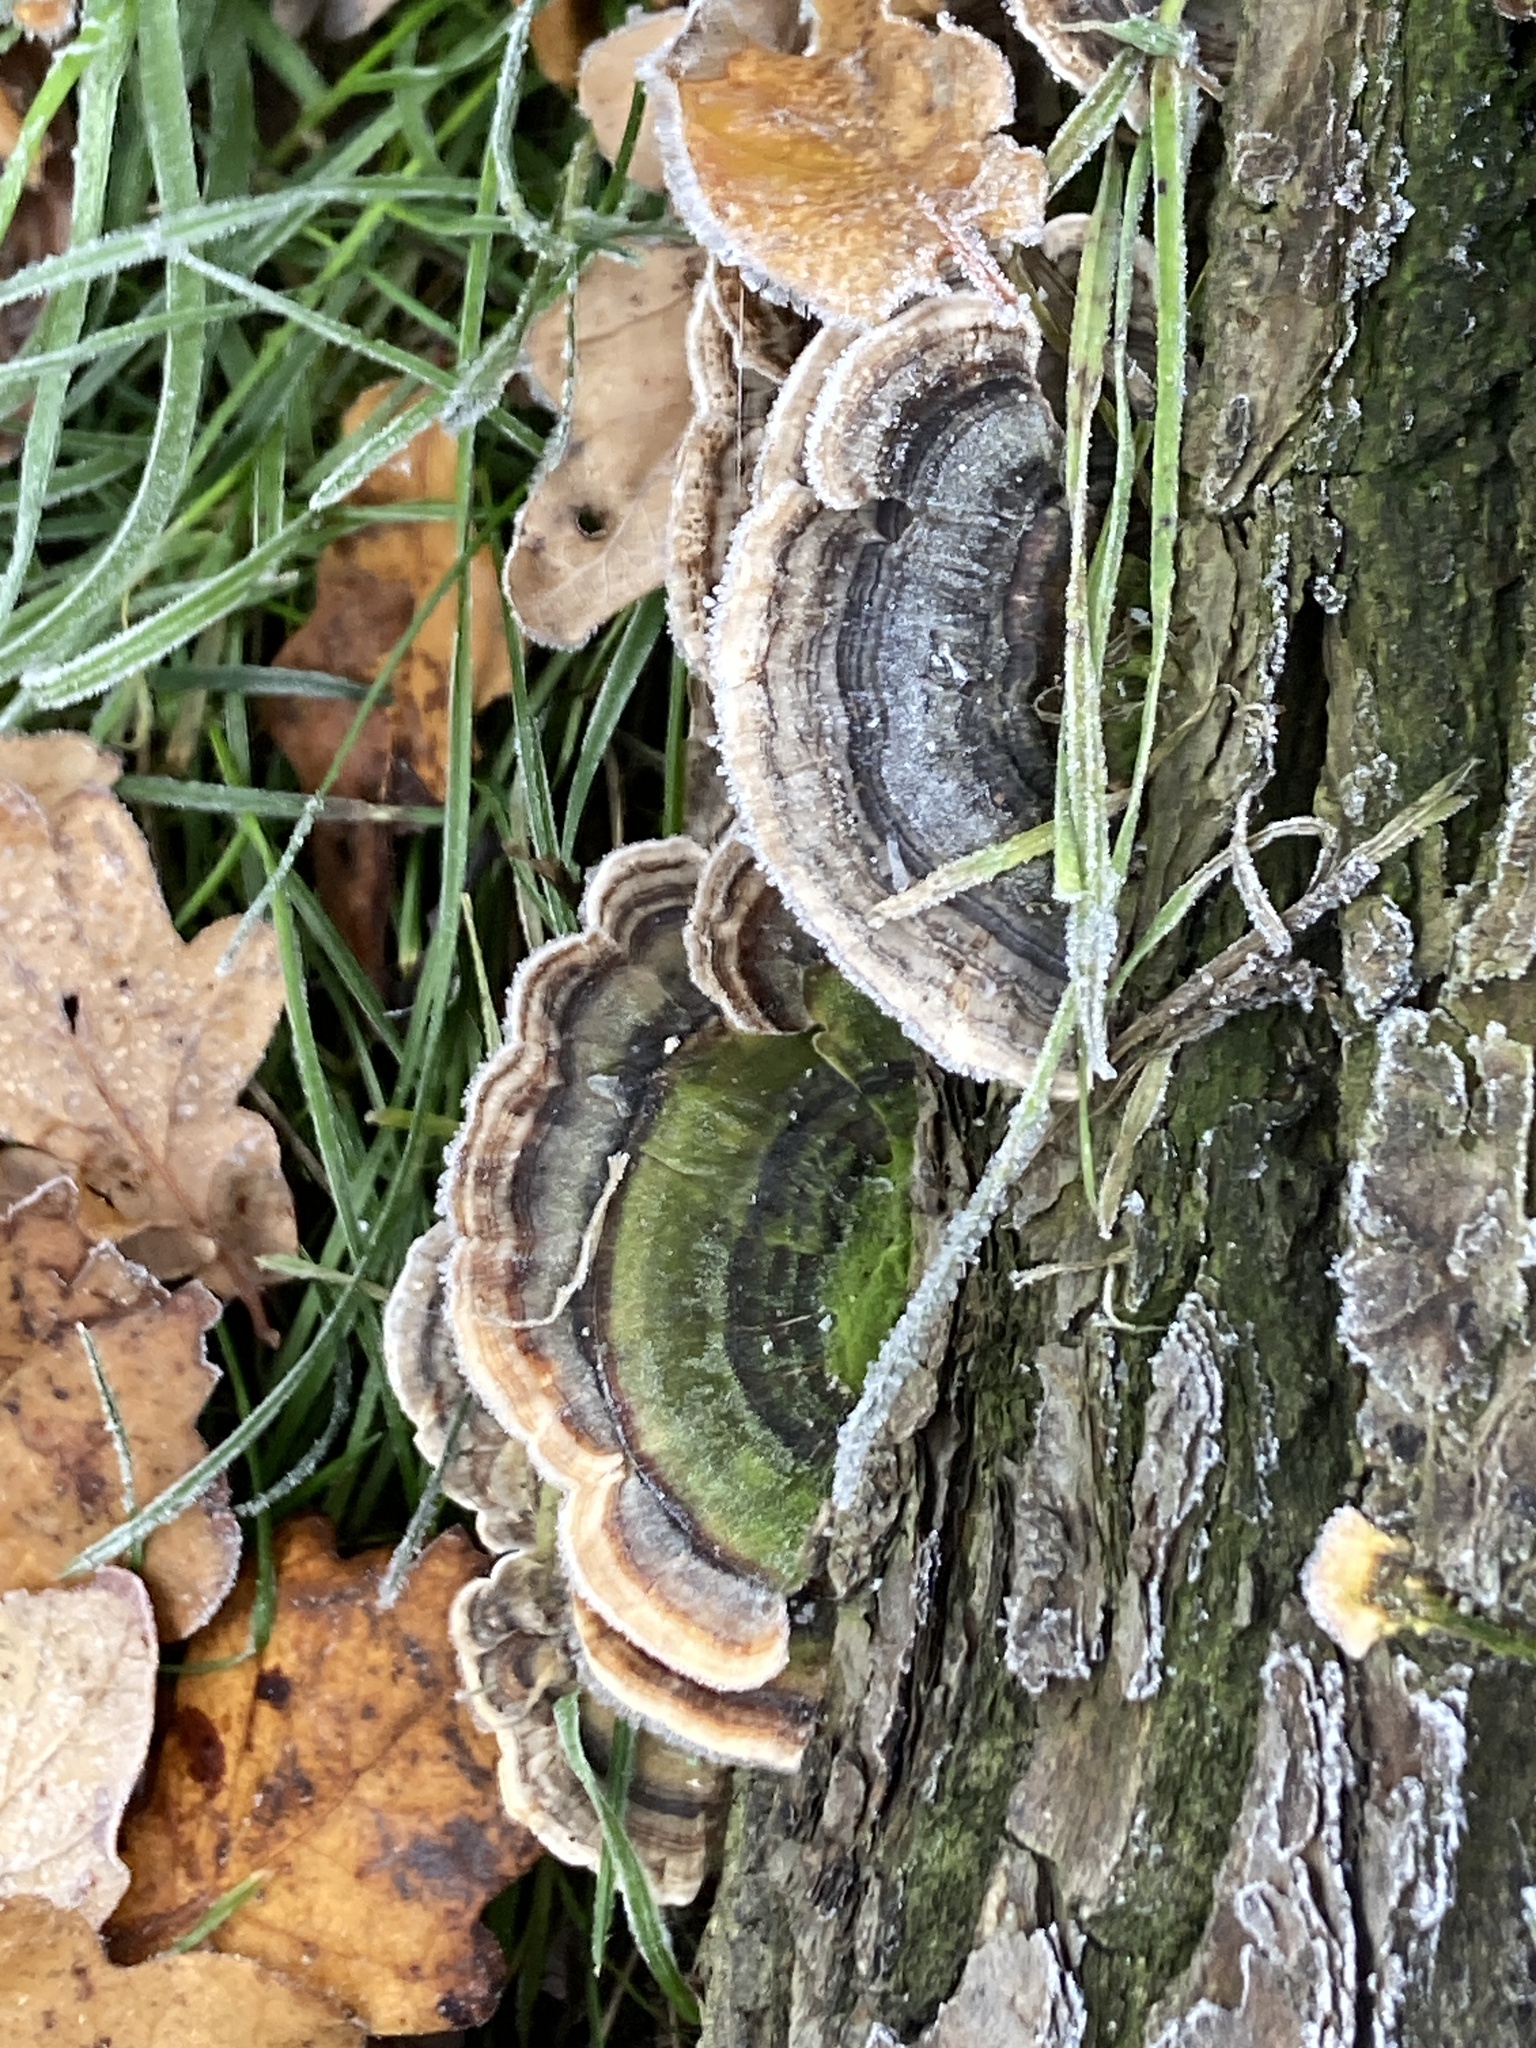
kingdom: Fungi
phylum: Basidiomycota
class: Agaricomycetes
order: Polyporales
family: Polyporaceae
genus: Trametes
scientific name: Trametes versicolor
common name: Turkeytail
